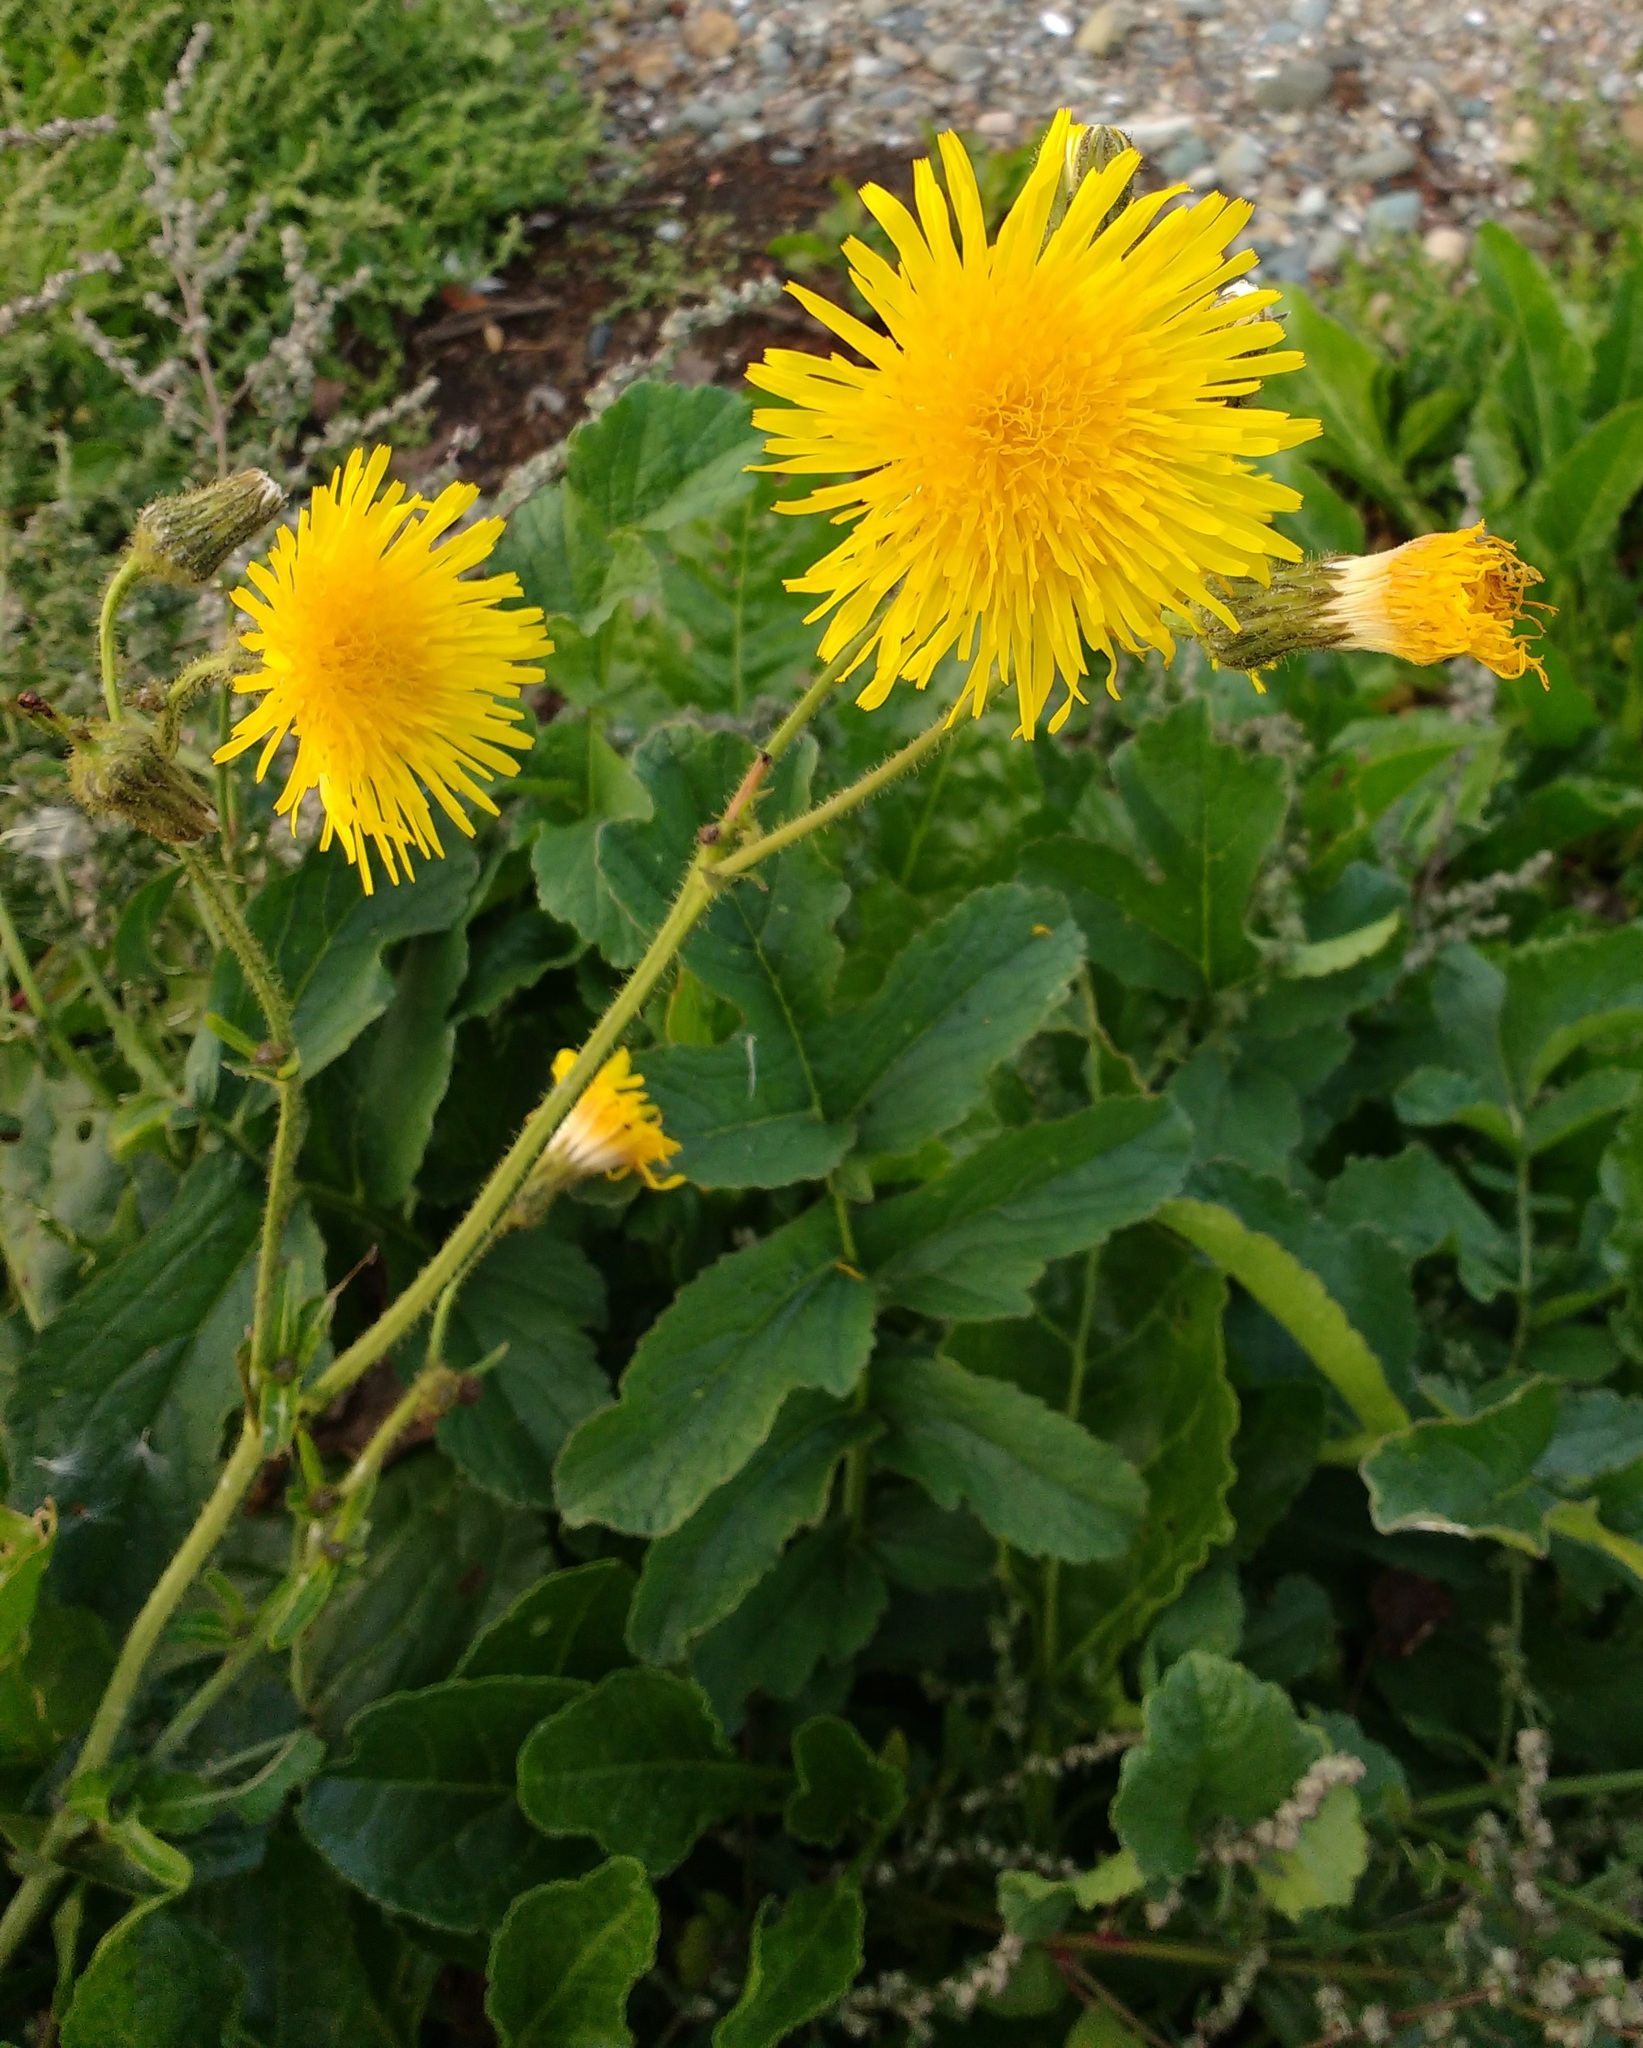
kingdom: Plantae
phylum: Tracheophyta
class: Magnoliopsida
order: Asterales
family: Asteraceae
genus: Sonchus
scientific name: Sonchus arvensis
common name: Perennial sow-thistle
